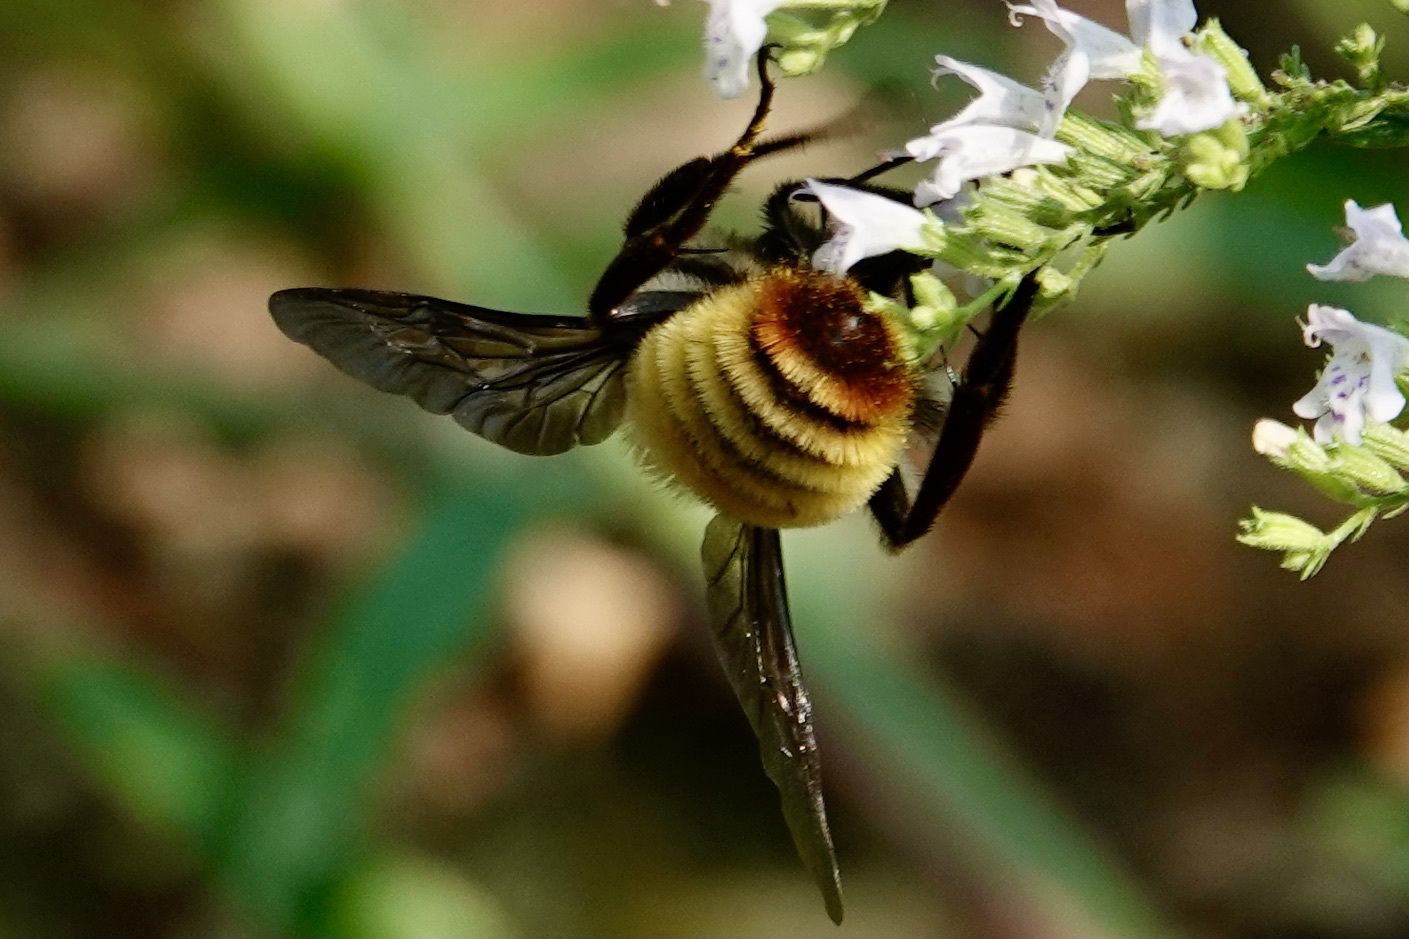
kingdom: Animalia
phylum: Arthropoda
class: Insecta
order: Hymenoptera
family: Apidae
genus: Bombus
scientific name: Bombus pensylvanicus
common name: Bumble bee
